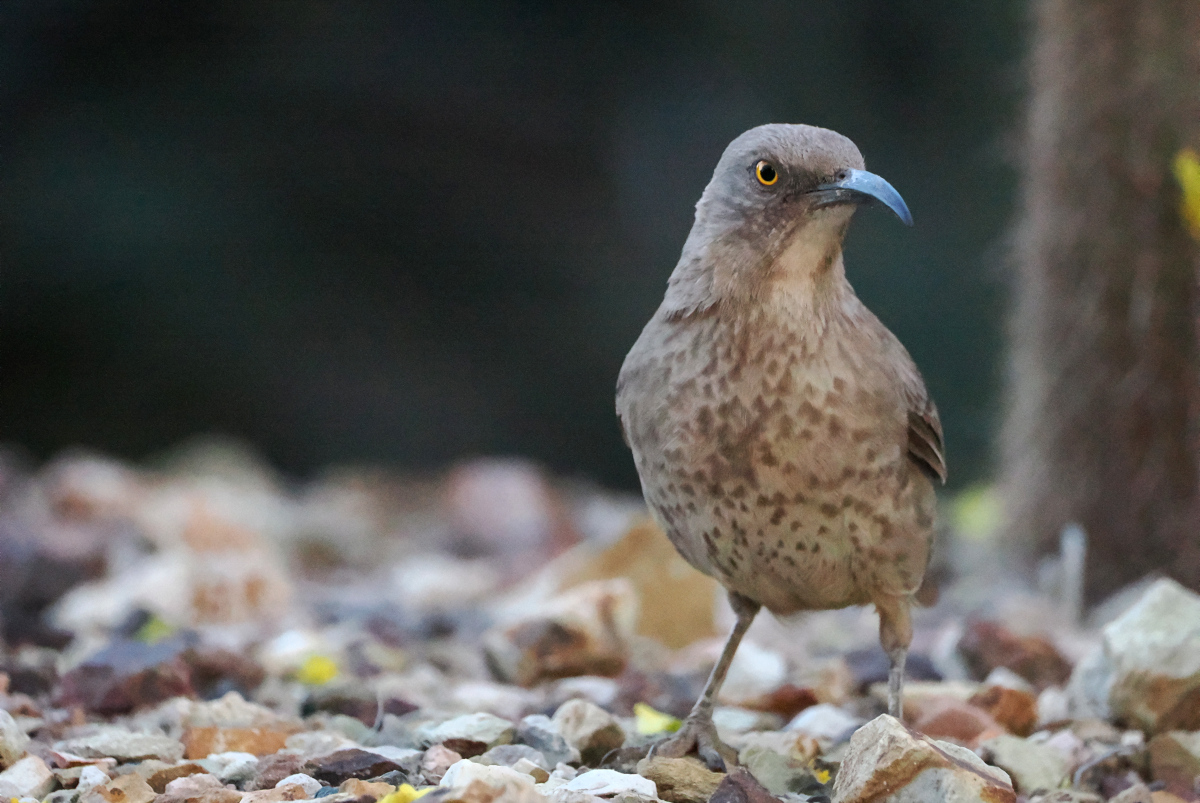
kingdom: Animalia
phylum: Chordata
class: Aves
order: Passeriformes
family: Mimidae
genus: Toxostoma
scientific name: Toxostoma curvirostre
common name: Curve-billed thrasher
